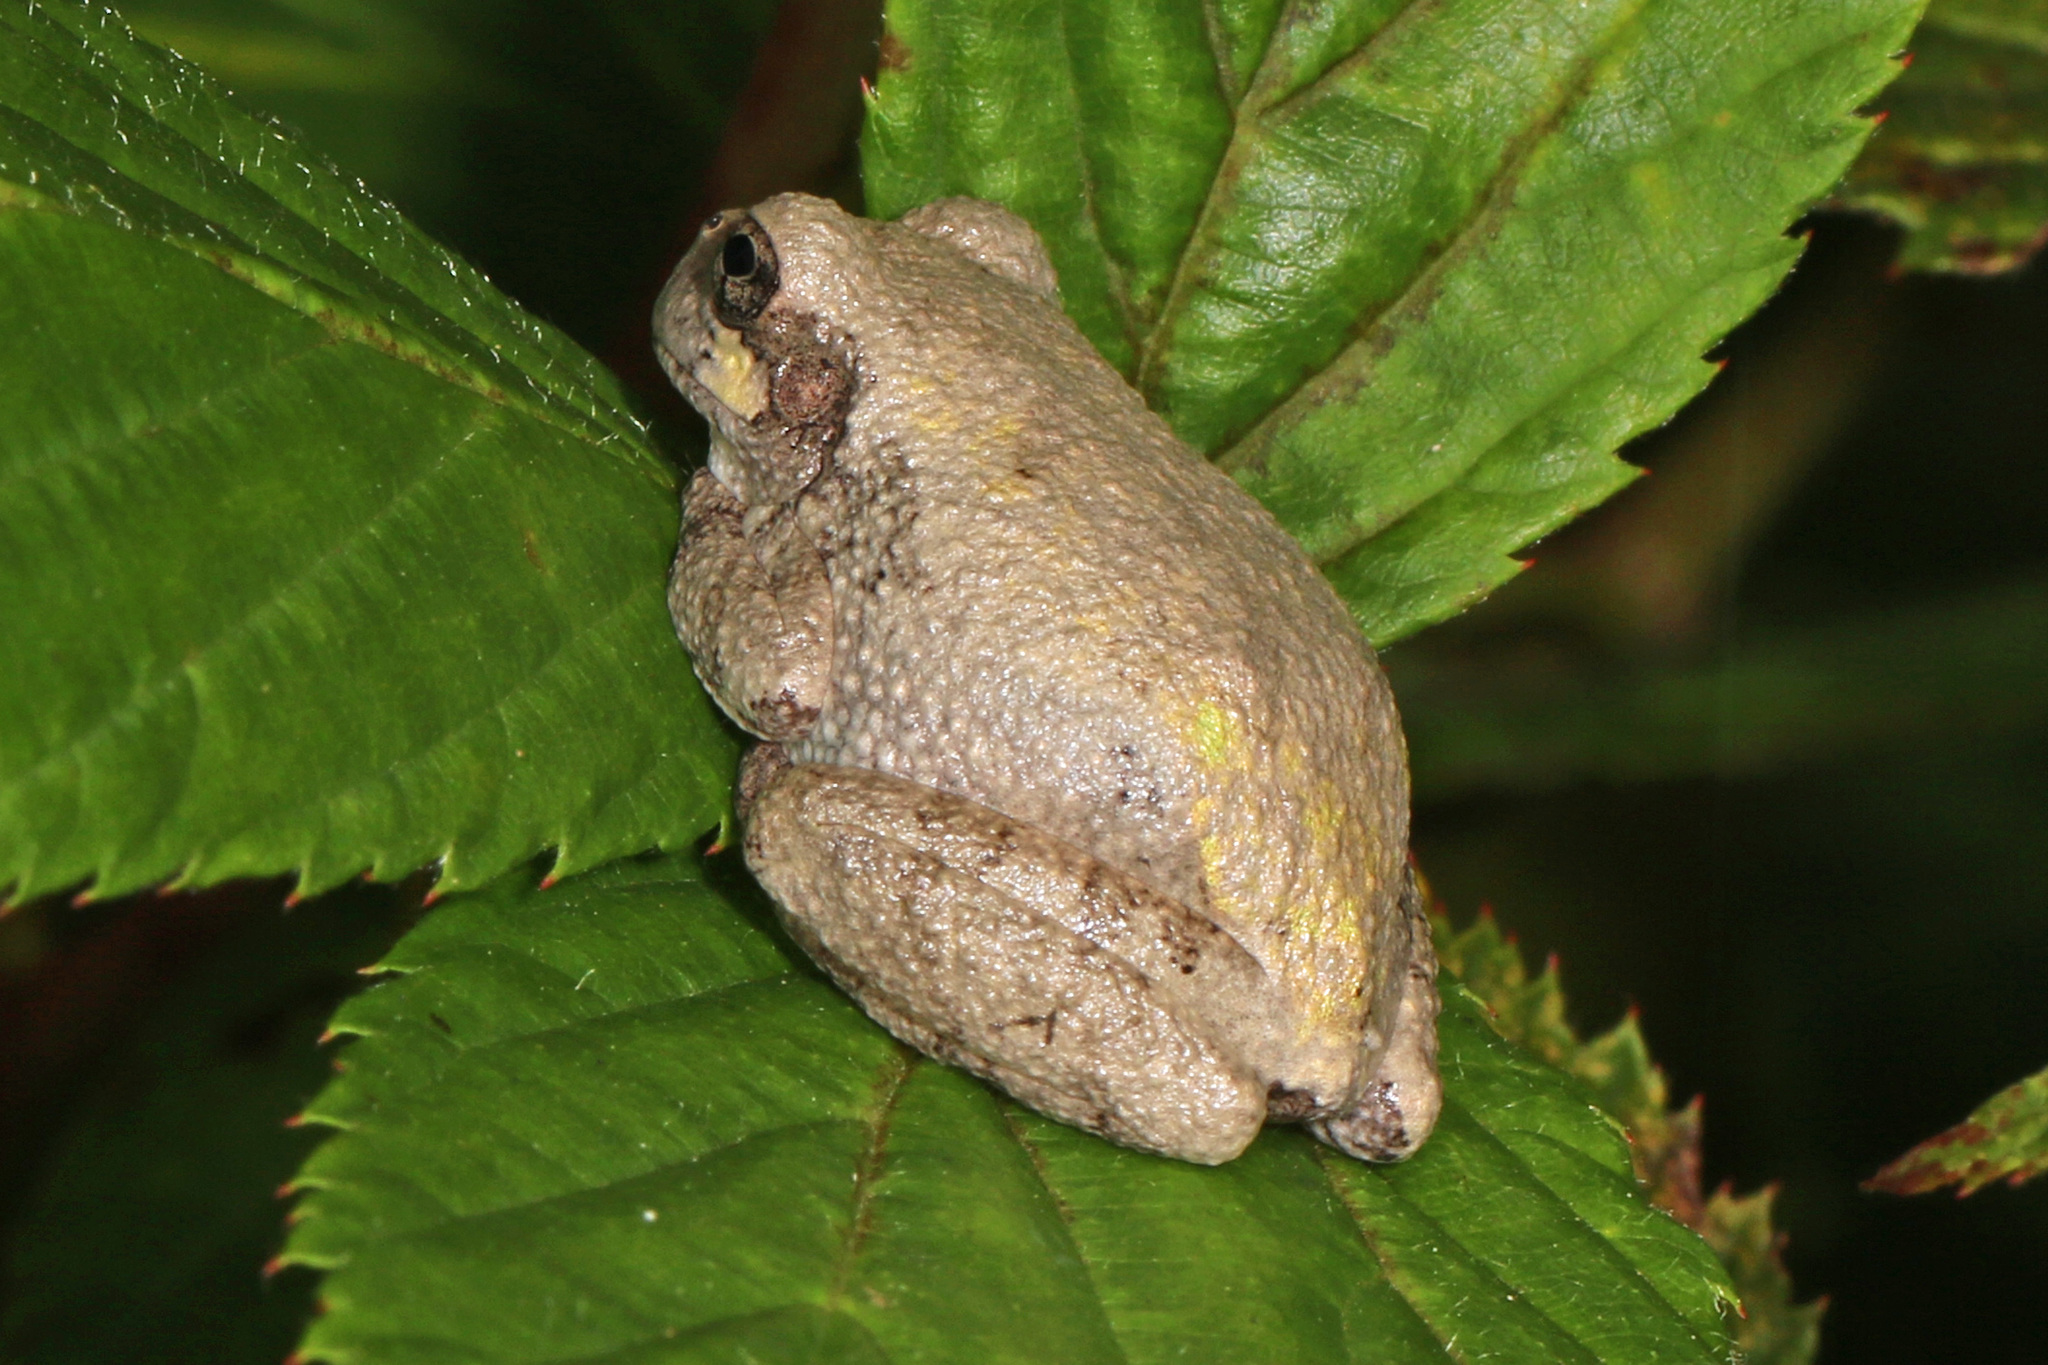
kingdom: Animalia
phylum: Chordata
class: Amphibia
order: Anura
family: Hylidae
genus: Dryophytes
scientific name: Dryophytes chrysoscelis
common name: Cope's gray treefrog
